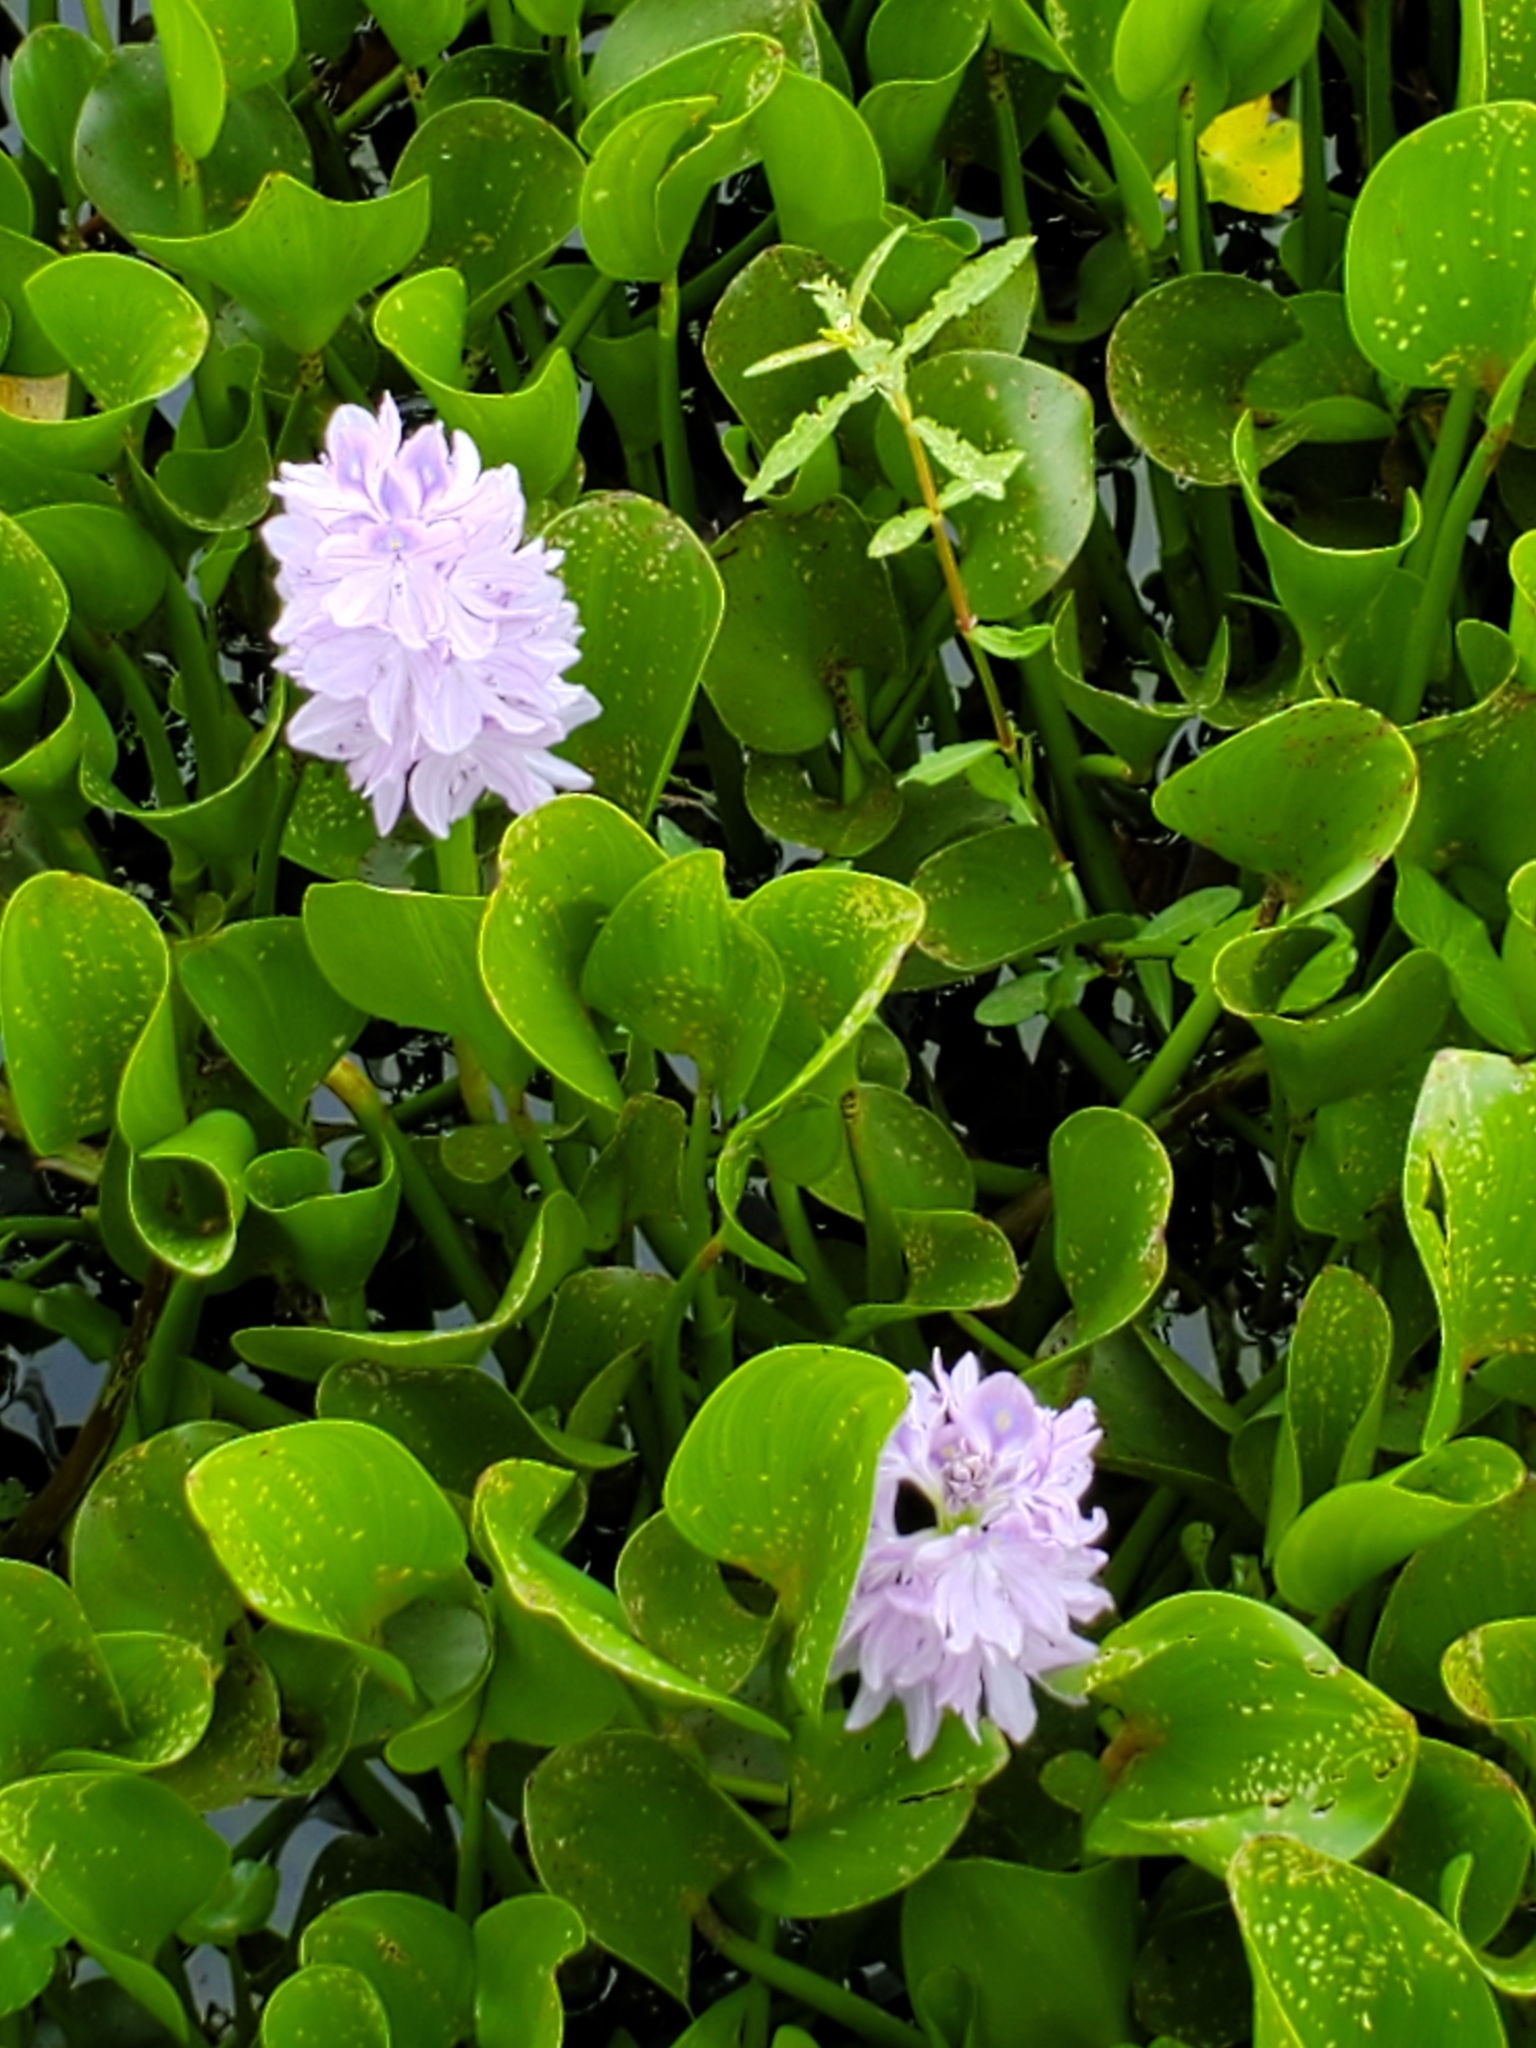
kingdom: Plantae
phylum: Tracheophyta
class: Liliopsida
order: Commelinales
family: Pontederiaceae
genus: Pontederia
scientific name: Pontederia crassipes
